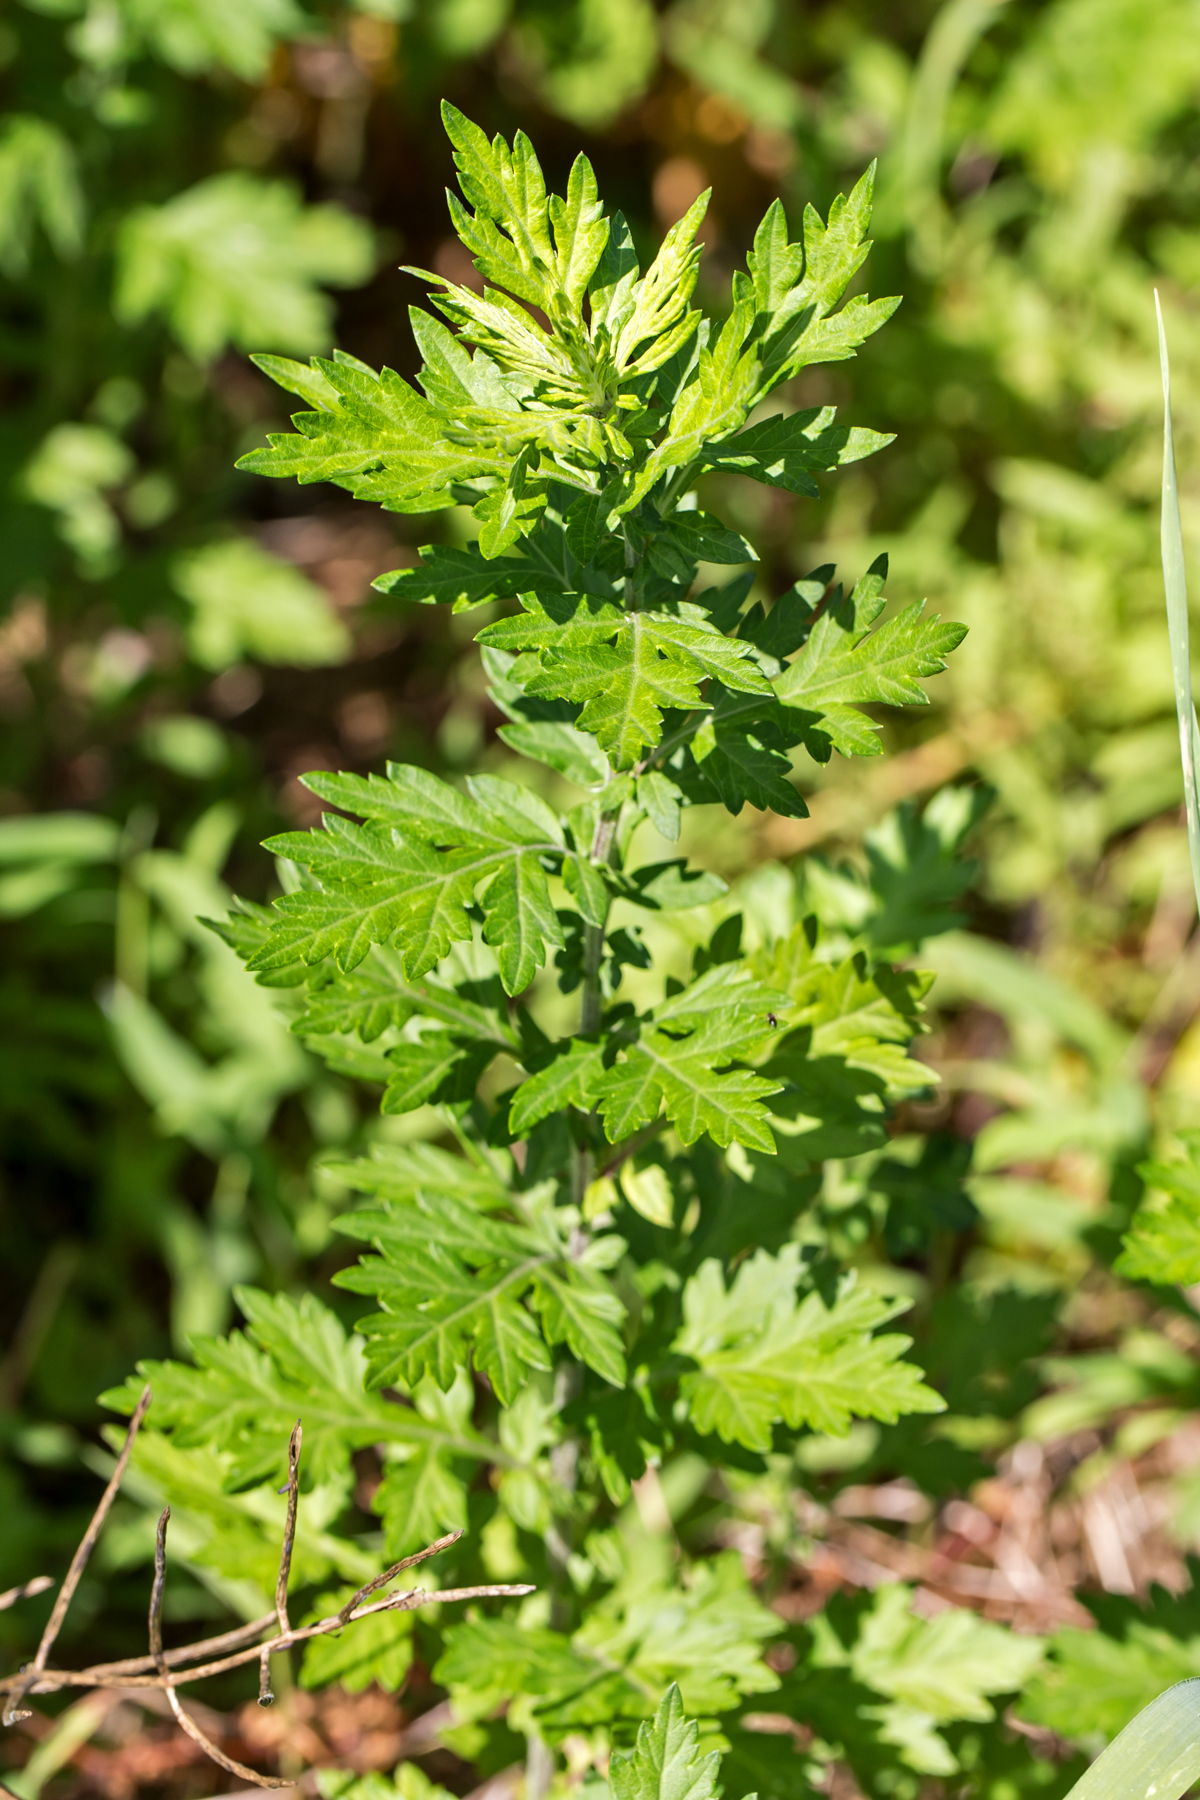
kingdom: Plantae
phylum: Tracheophyta
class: Magnoliopsida
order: Asterales
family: Asteraceae
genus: Artemisia
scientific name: Artemisia vulgaris
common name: Mugwort
